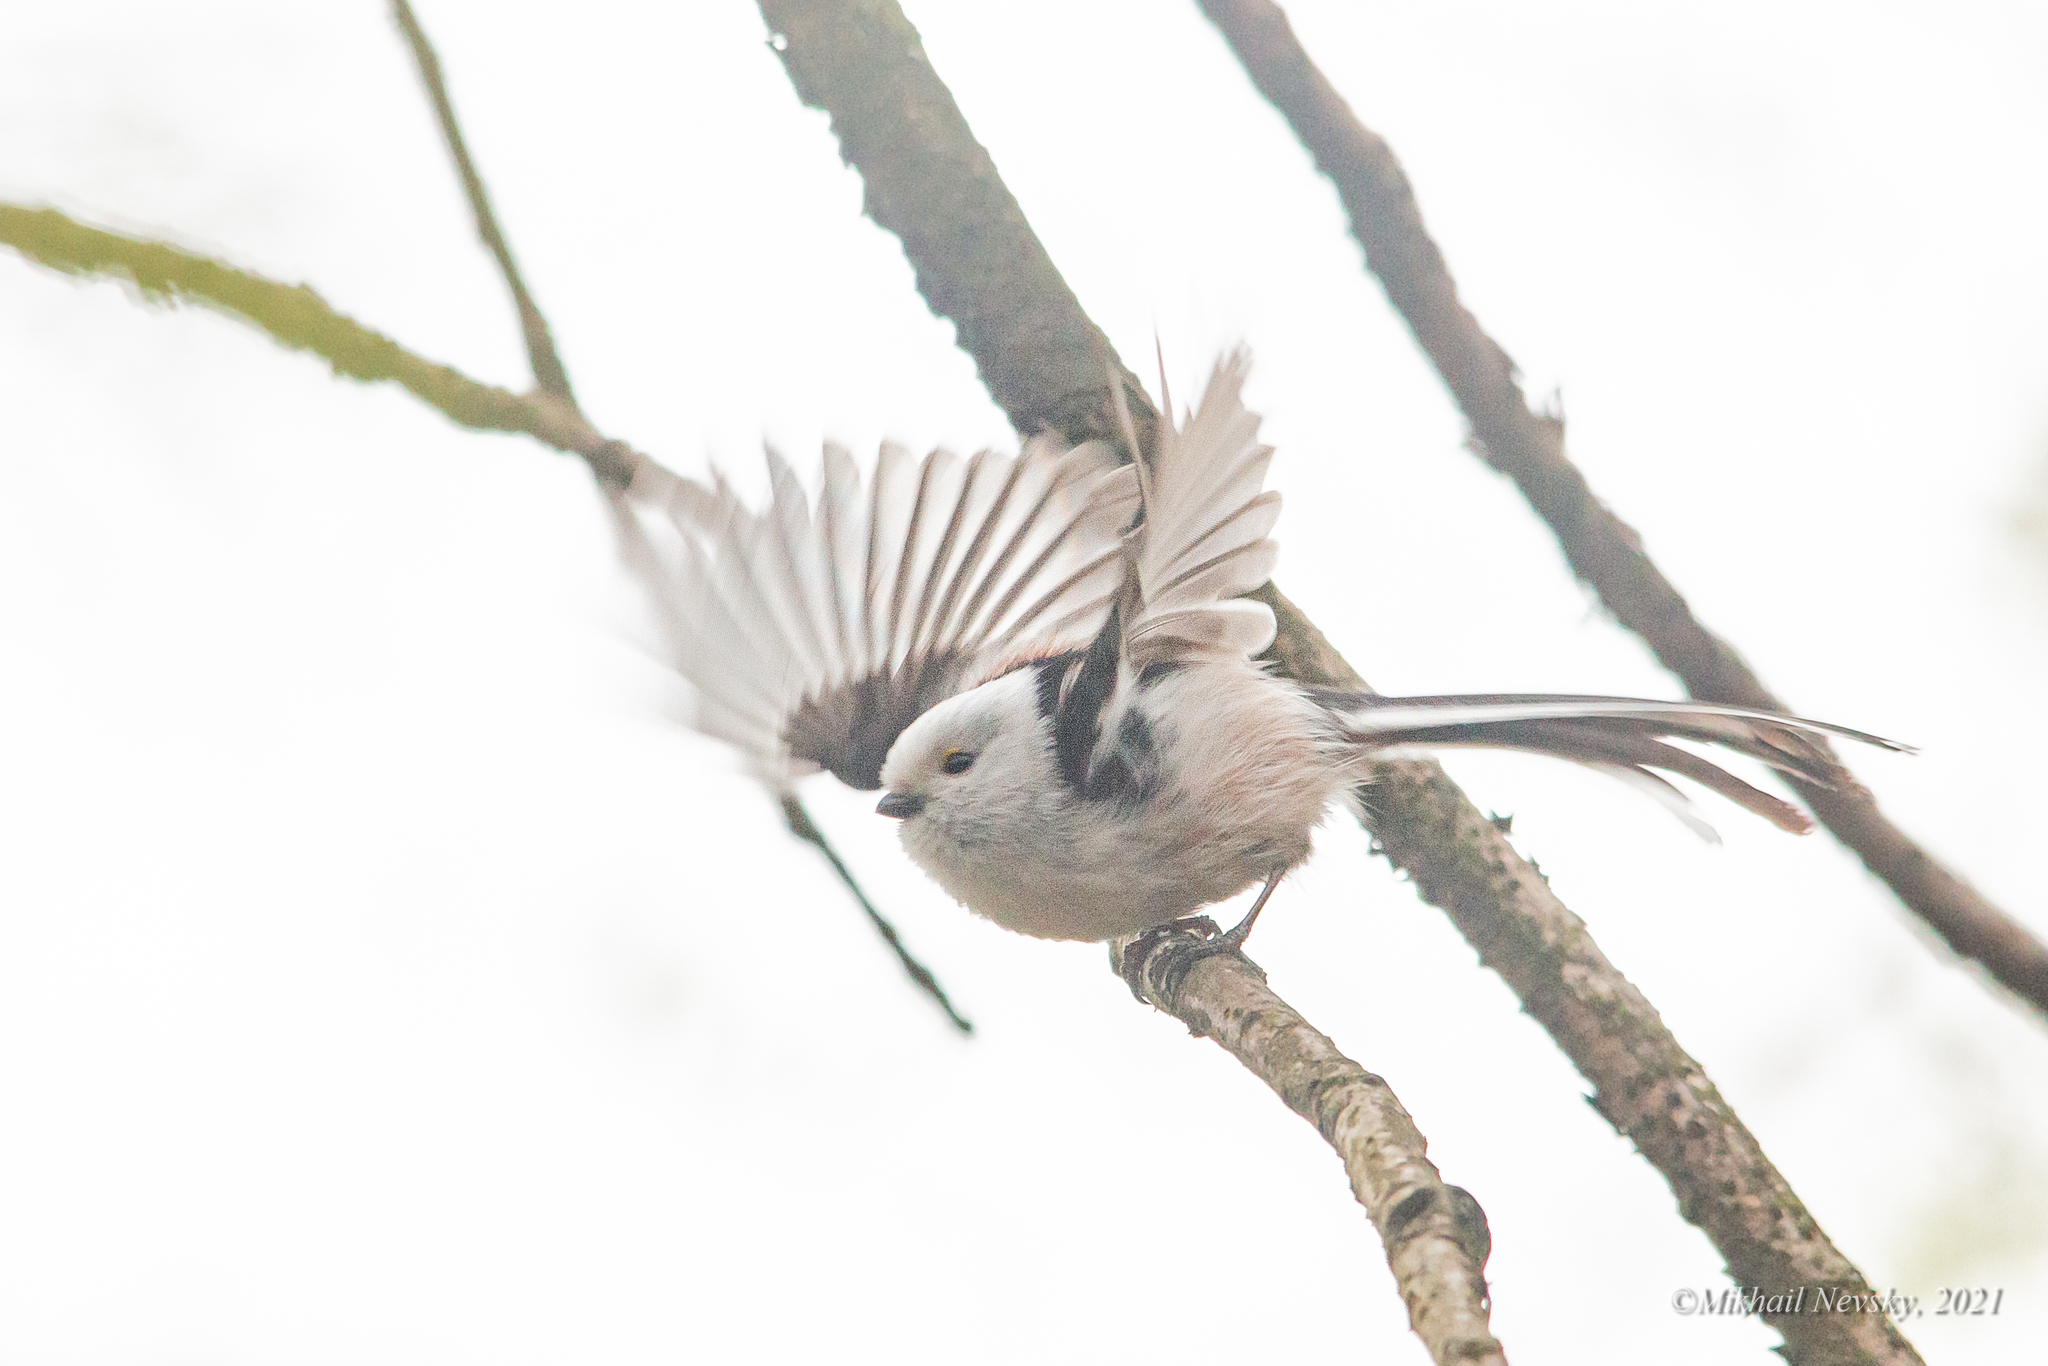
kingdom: Animalia
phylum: Chordata
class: Aves
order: Passeriformes
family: Aegithalidae
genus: Aegithalos
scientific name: Aegithalos caudatus
